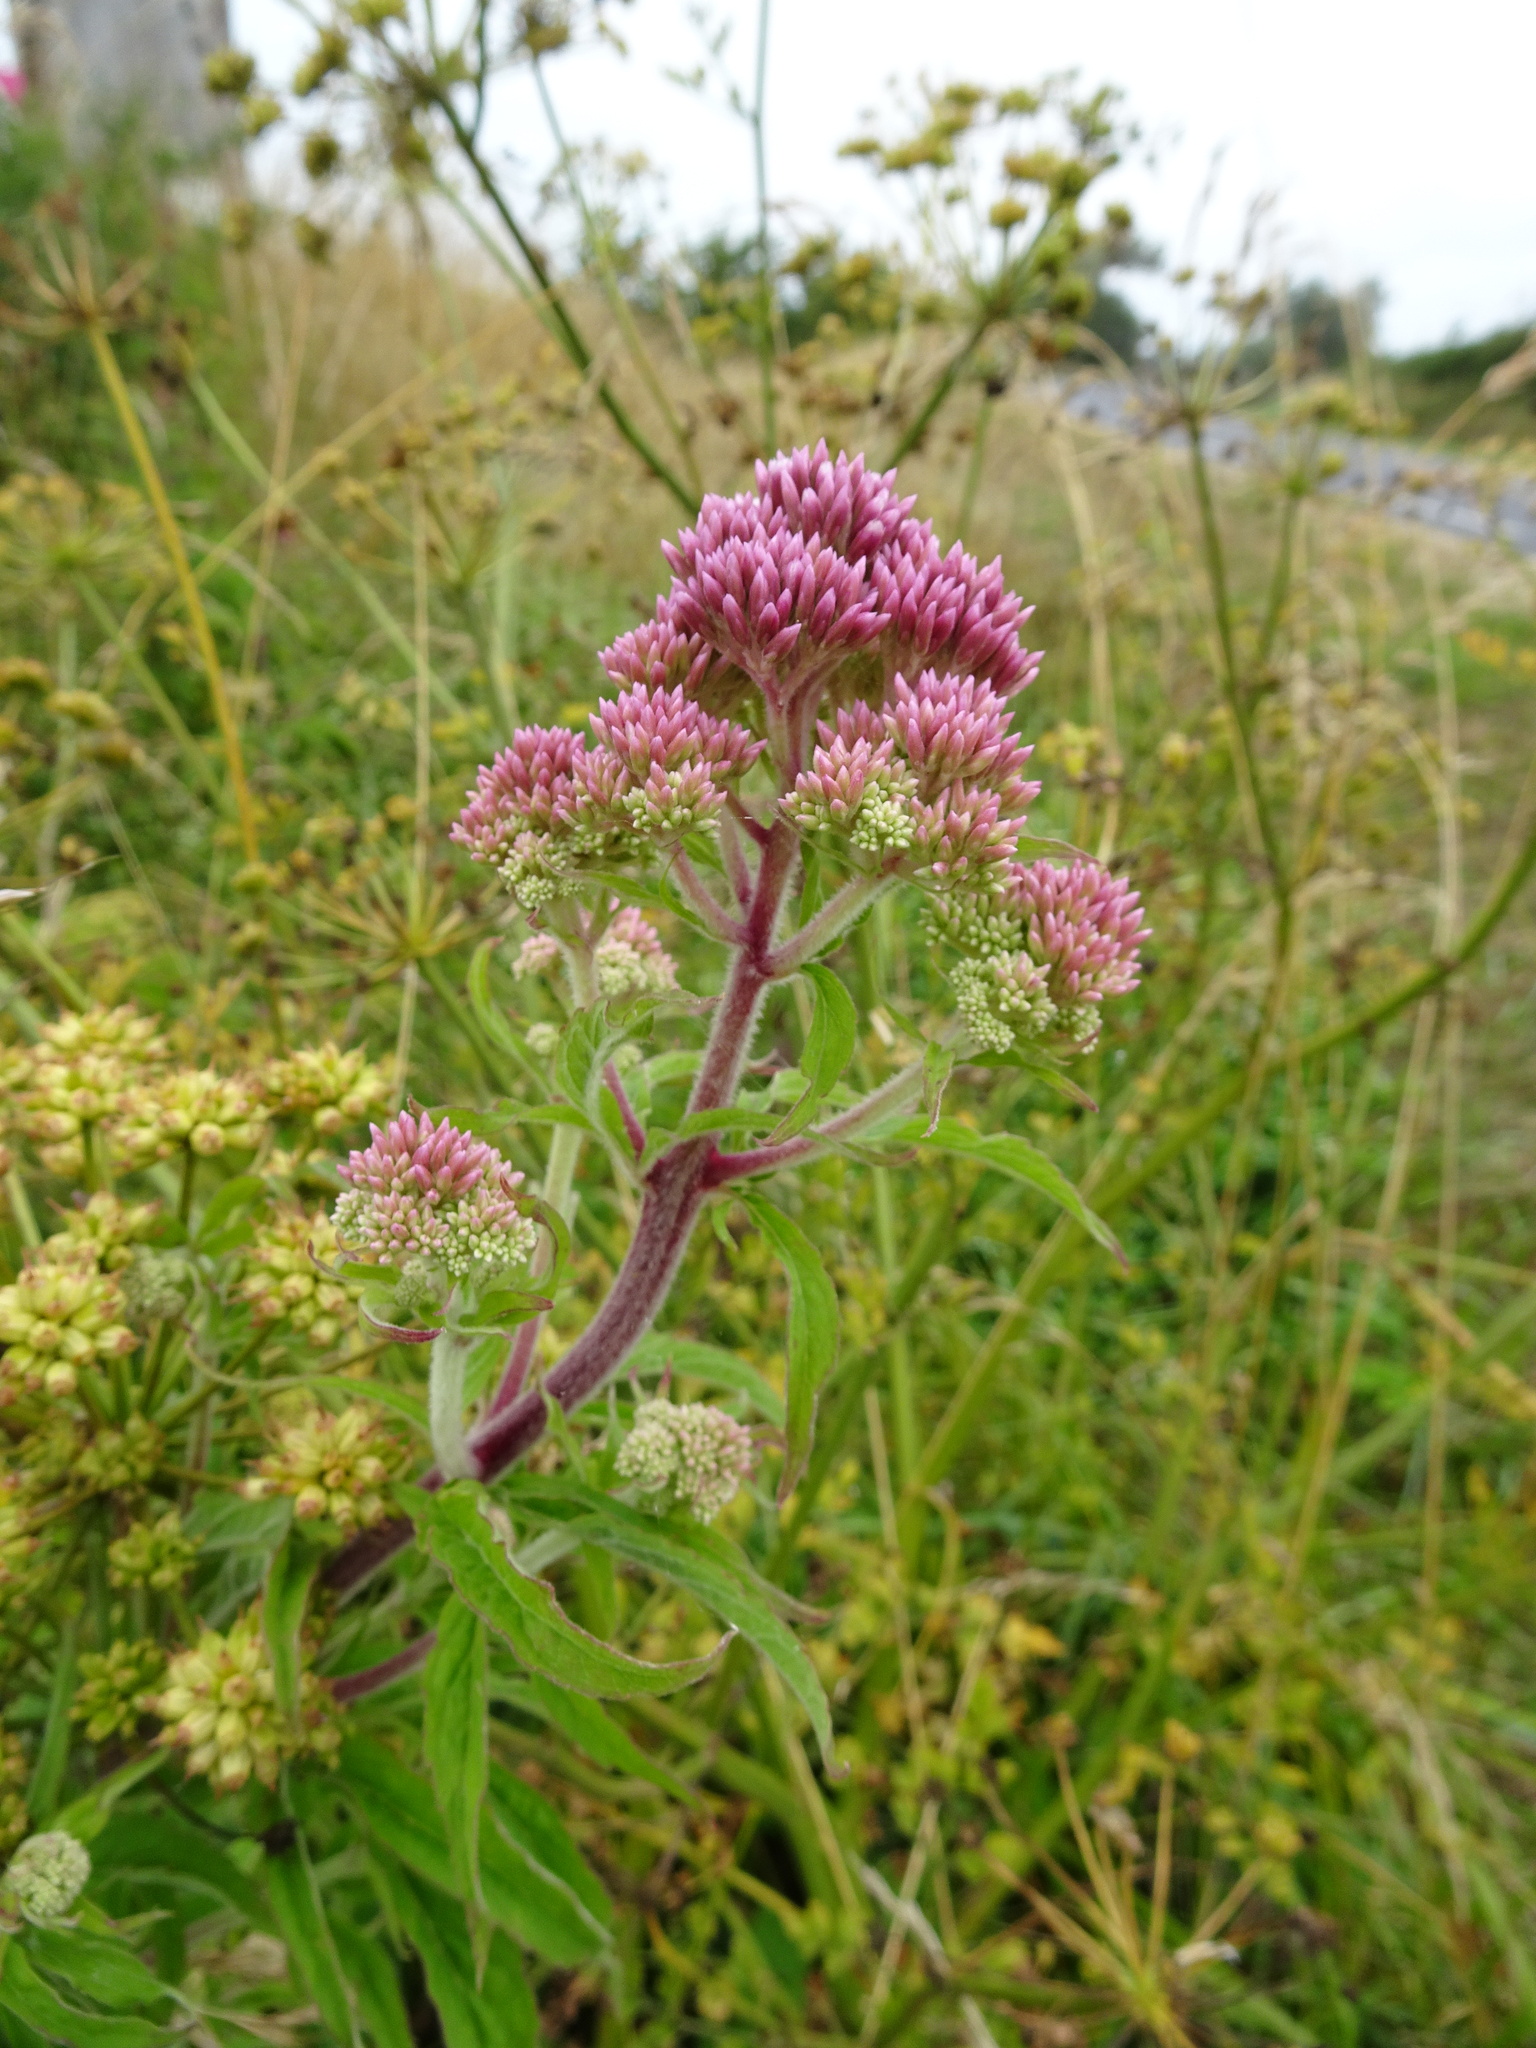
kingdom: Plantae
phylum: Tracheophyta
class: Magnoliopsida
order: Asterales
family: Asteraceae
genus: Eupatorium
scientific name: Eupatorium cannabinum
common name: Hemp-agrimony
